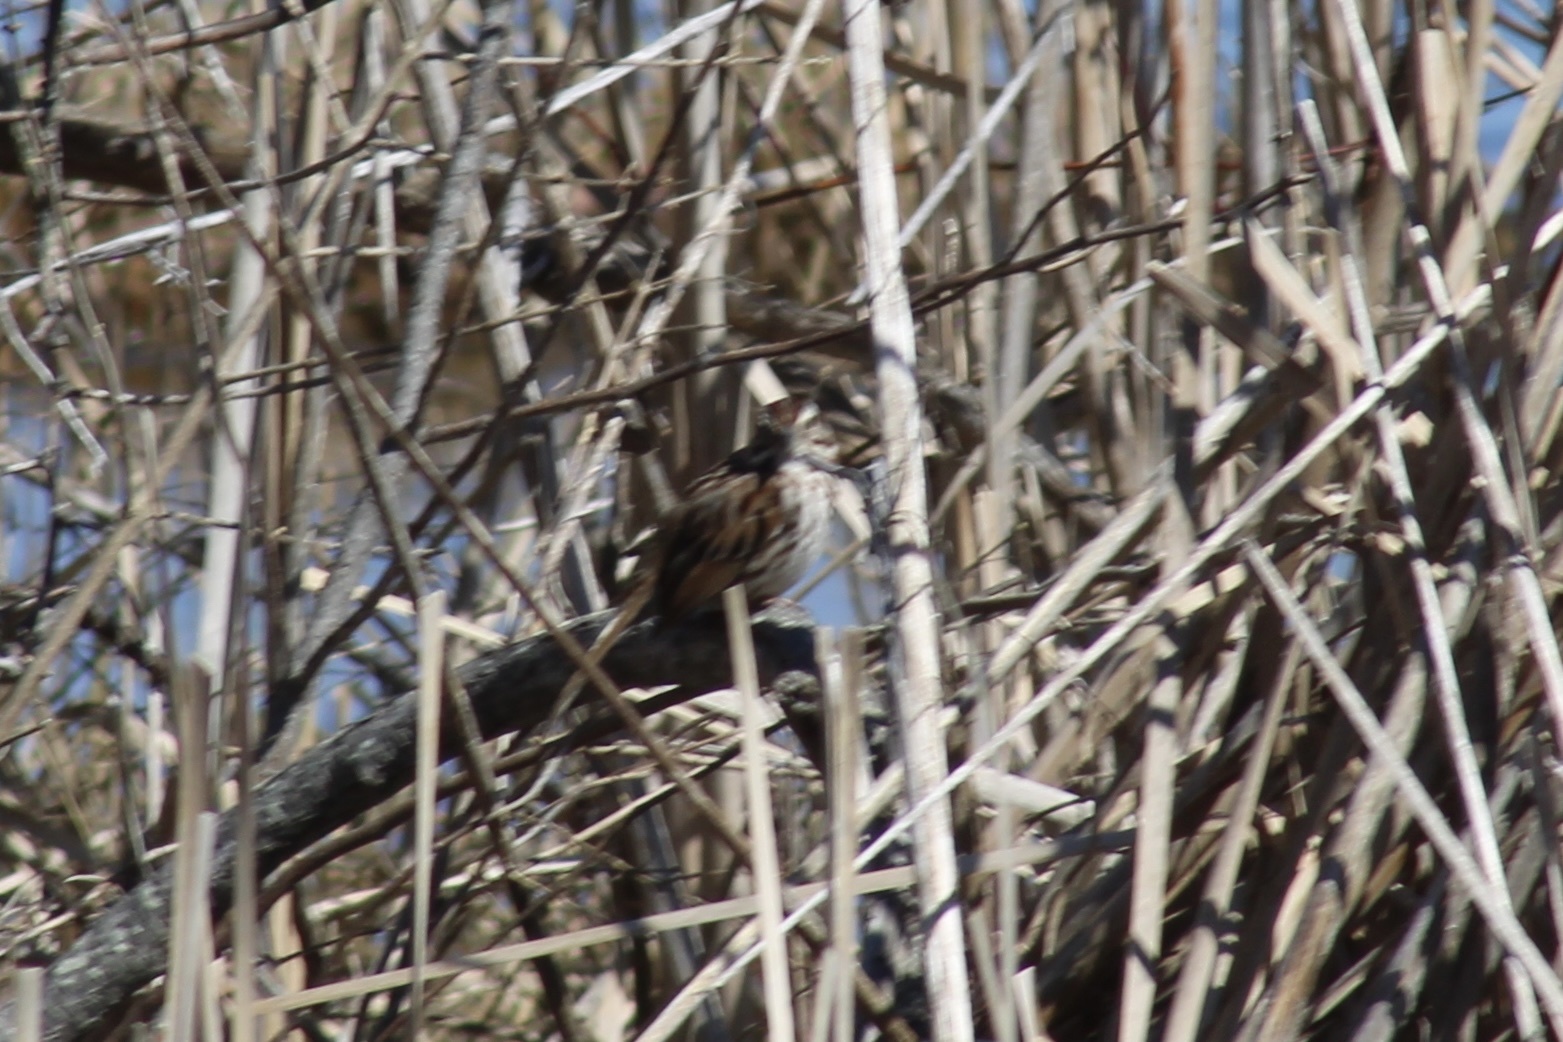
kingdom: Animalia
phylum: Chordata
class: Aves
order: Passeriformes
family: Passerellidae
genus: Melospiza
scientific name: Melospiza melodia
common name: Song sparrow
